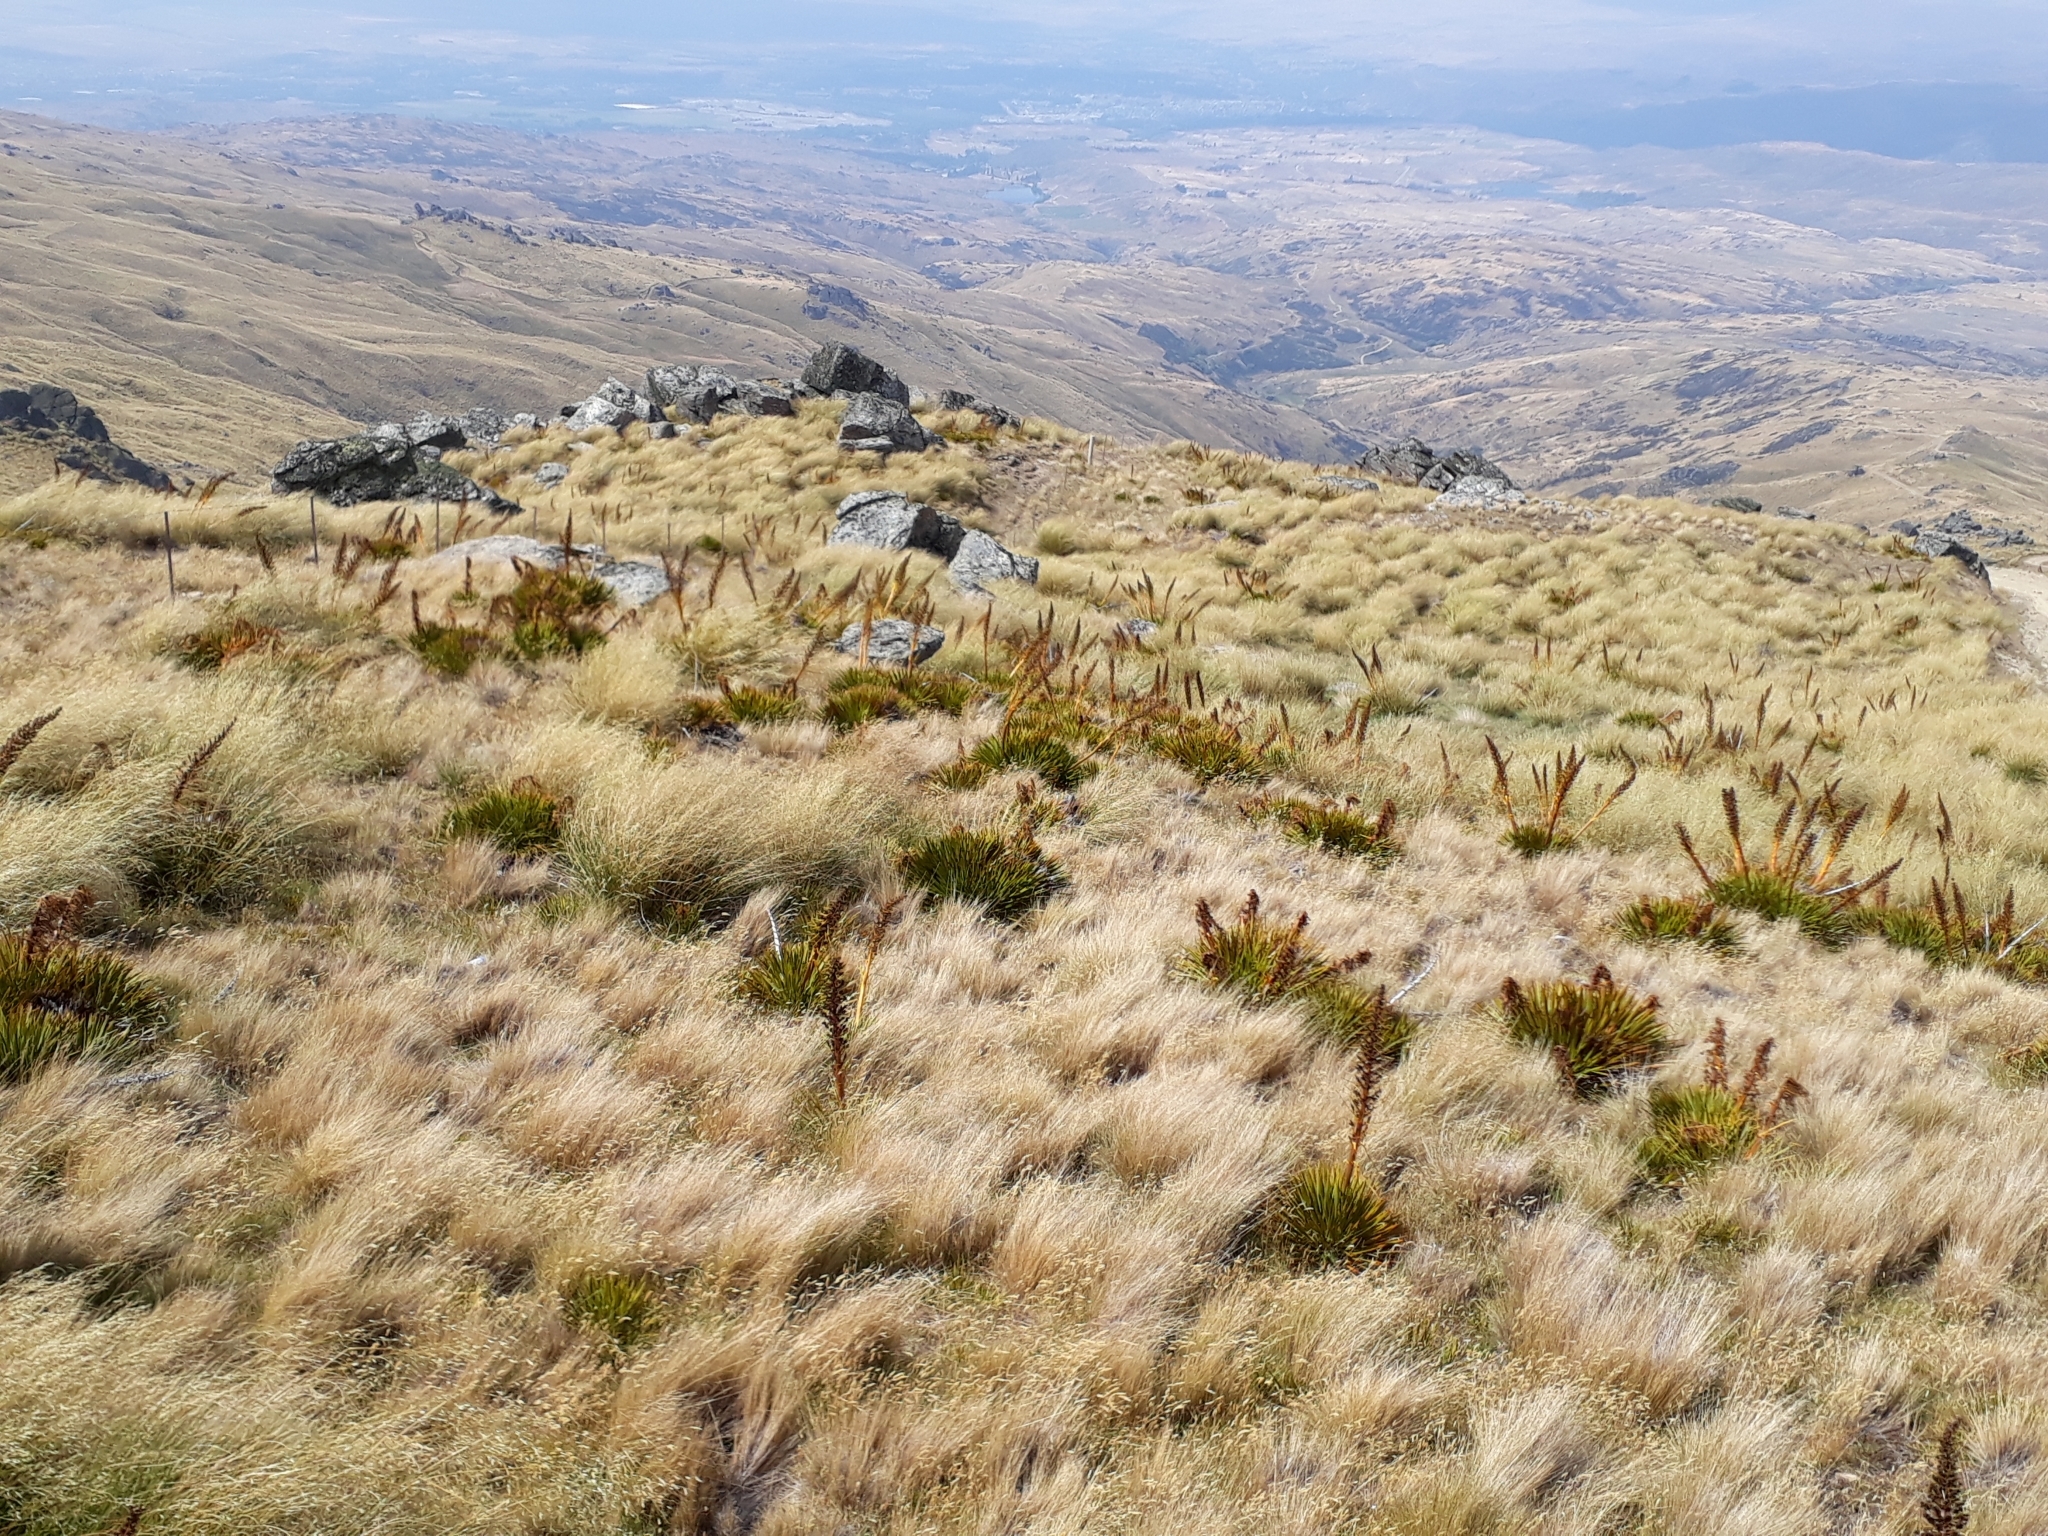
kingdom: Plantae
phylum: Tracheophyta
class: Magnoliopsida
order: Apiales
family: Apiaceae
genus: Aciphylla
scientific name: Aciphylla aurea
